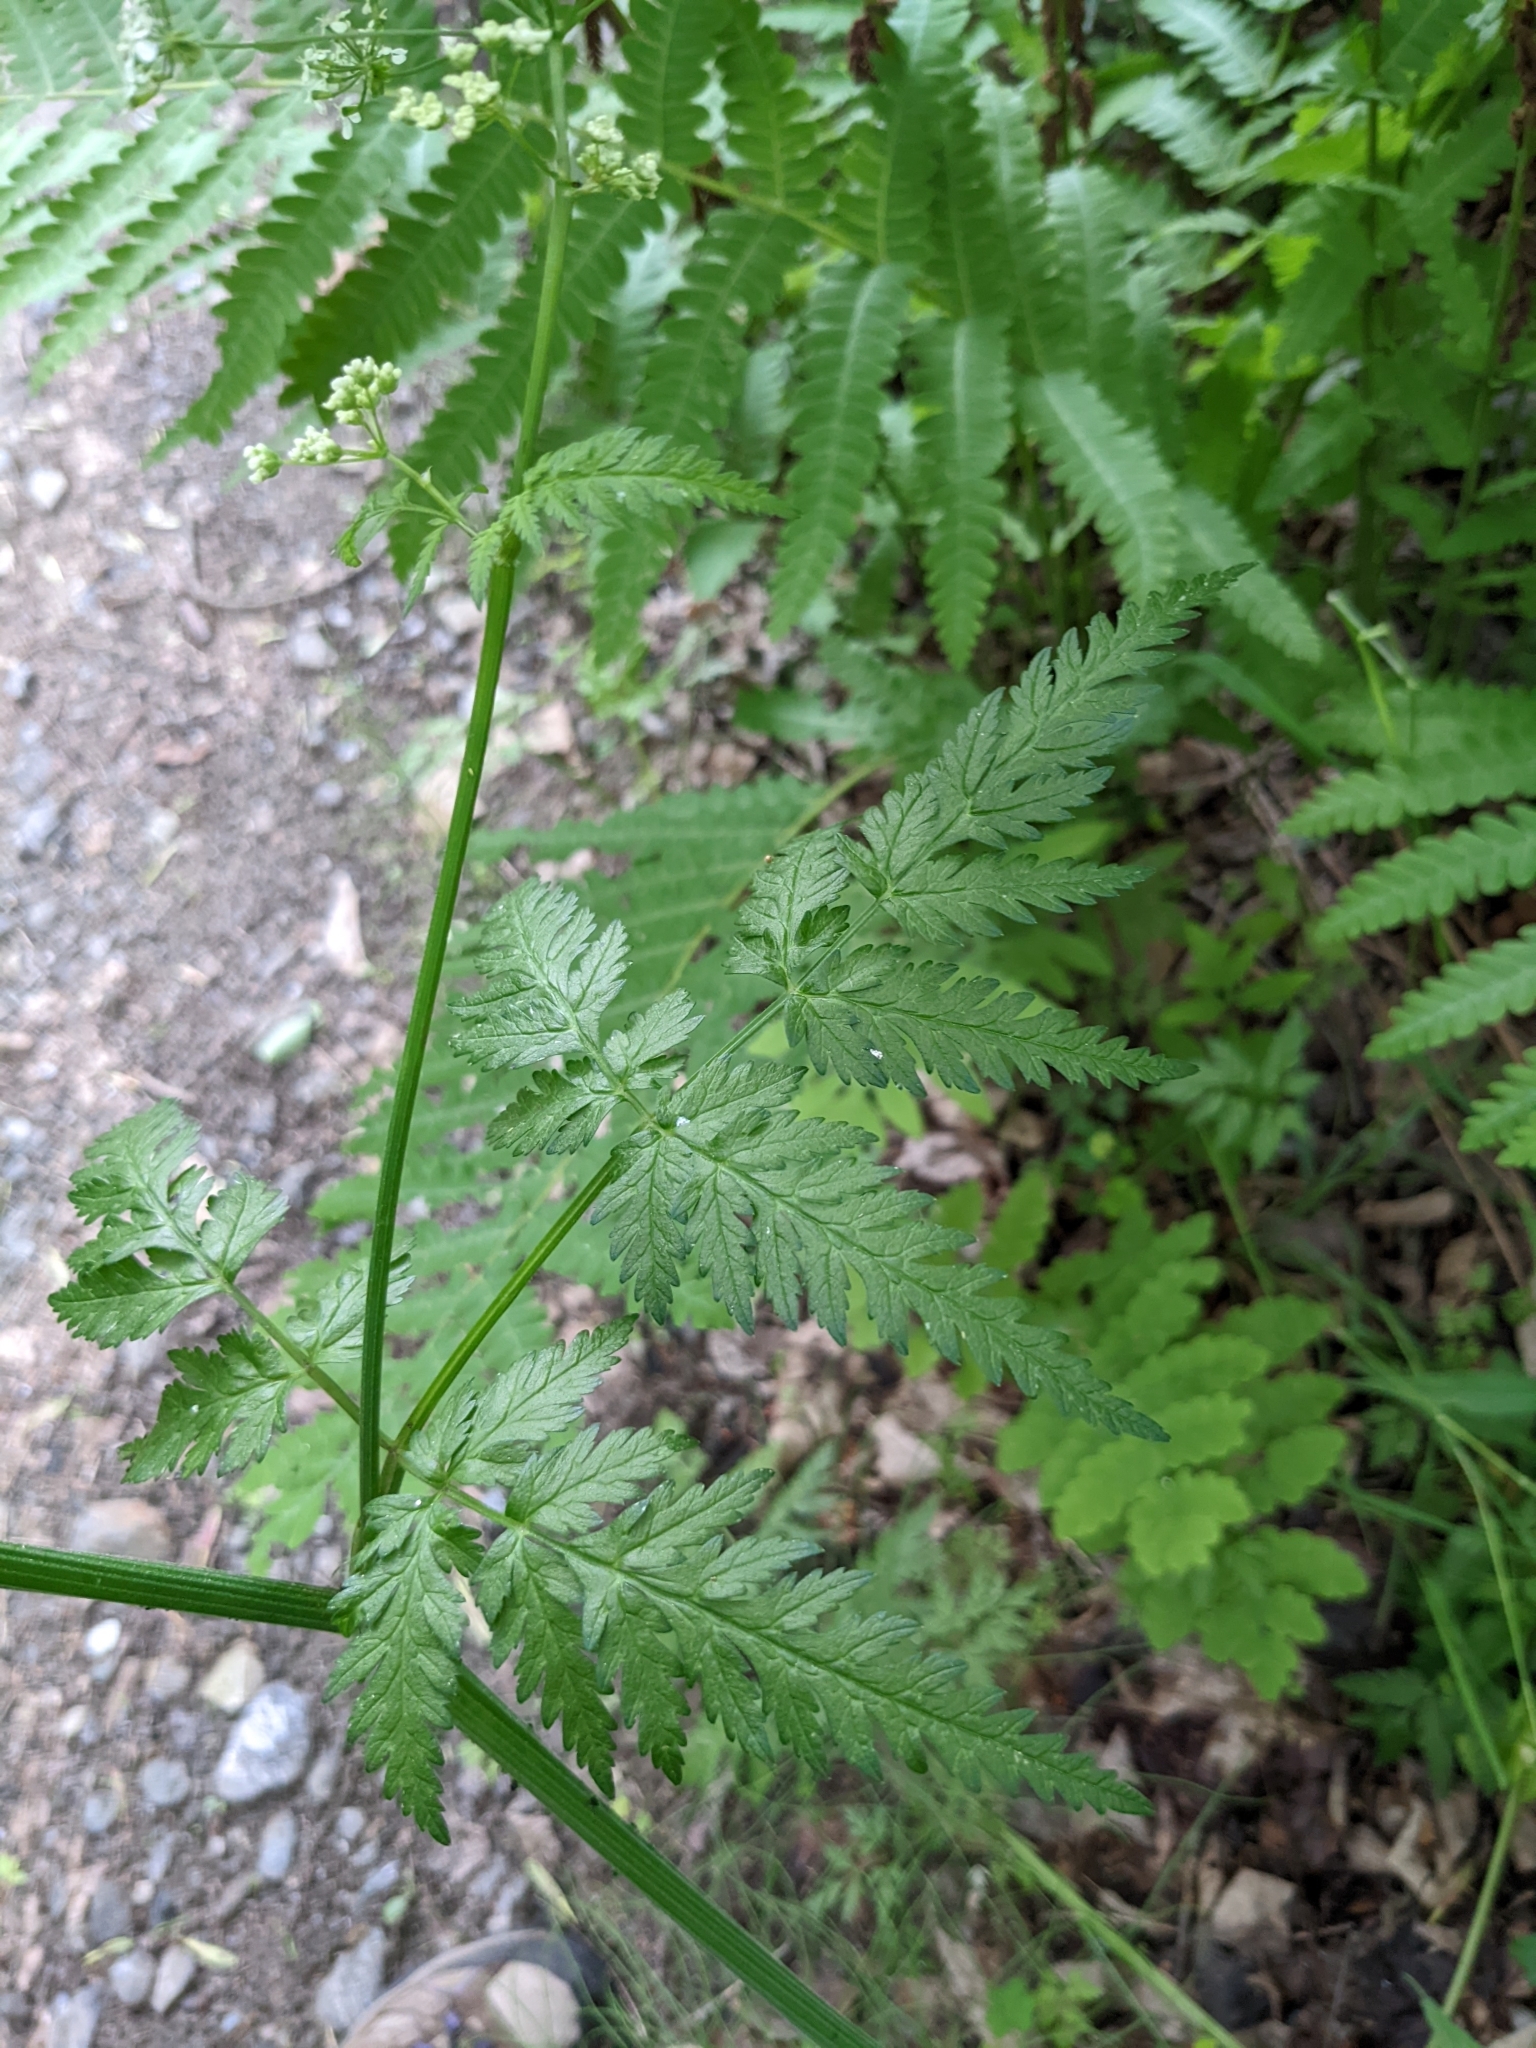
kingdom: Plantae
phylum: Tracheophyta
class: Magnoliopsida
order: Apiales
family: Apiaceae
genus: Anthriscus
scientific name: Anthriscus sylvestris
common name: Cow parsley
